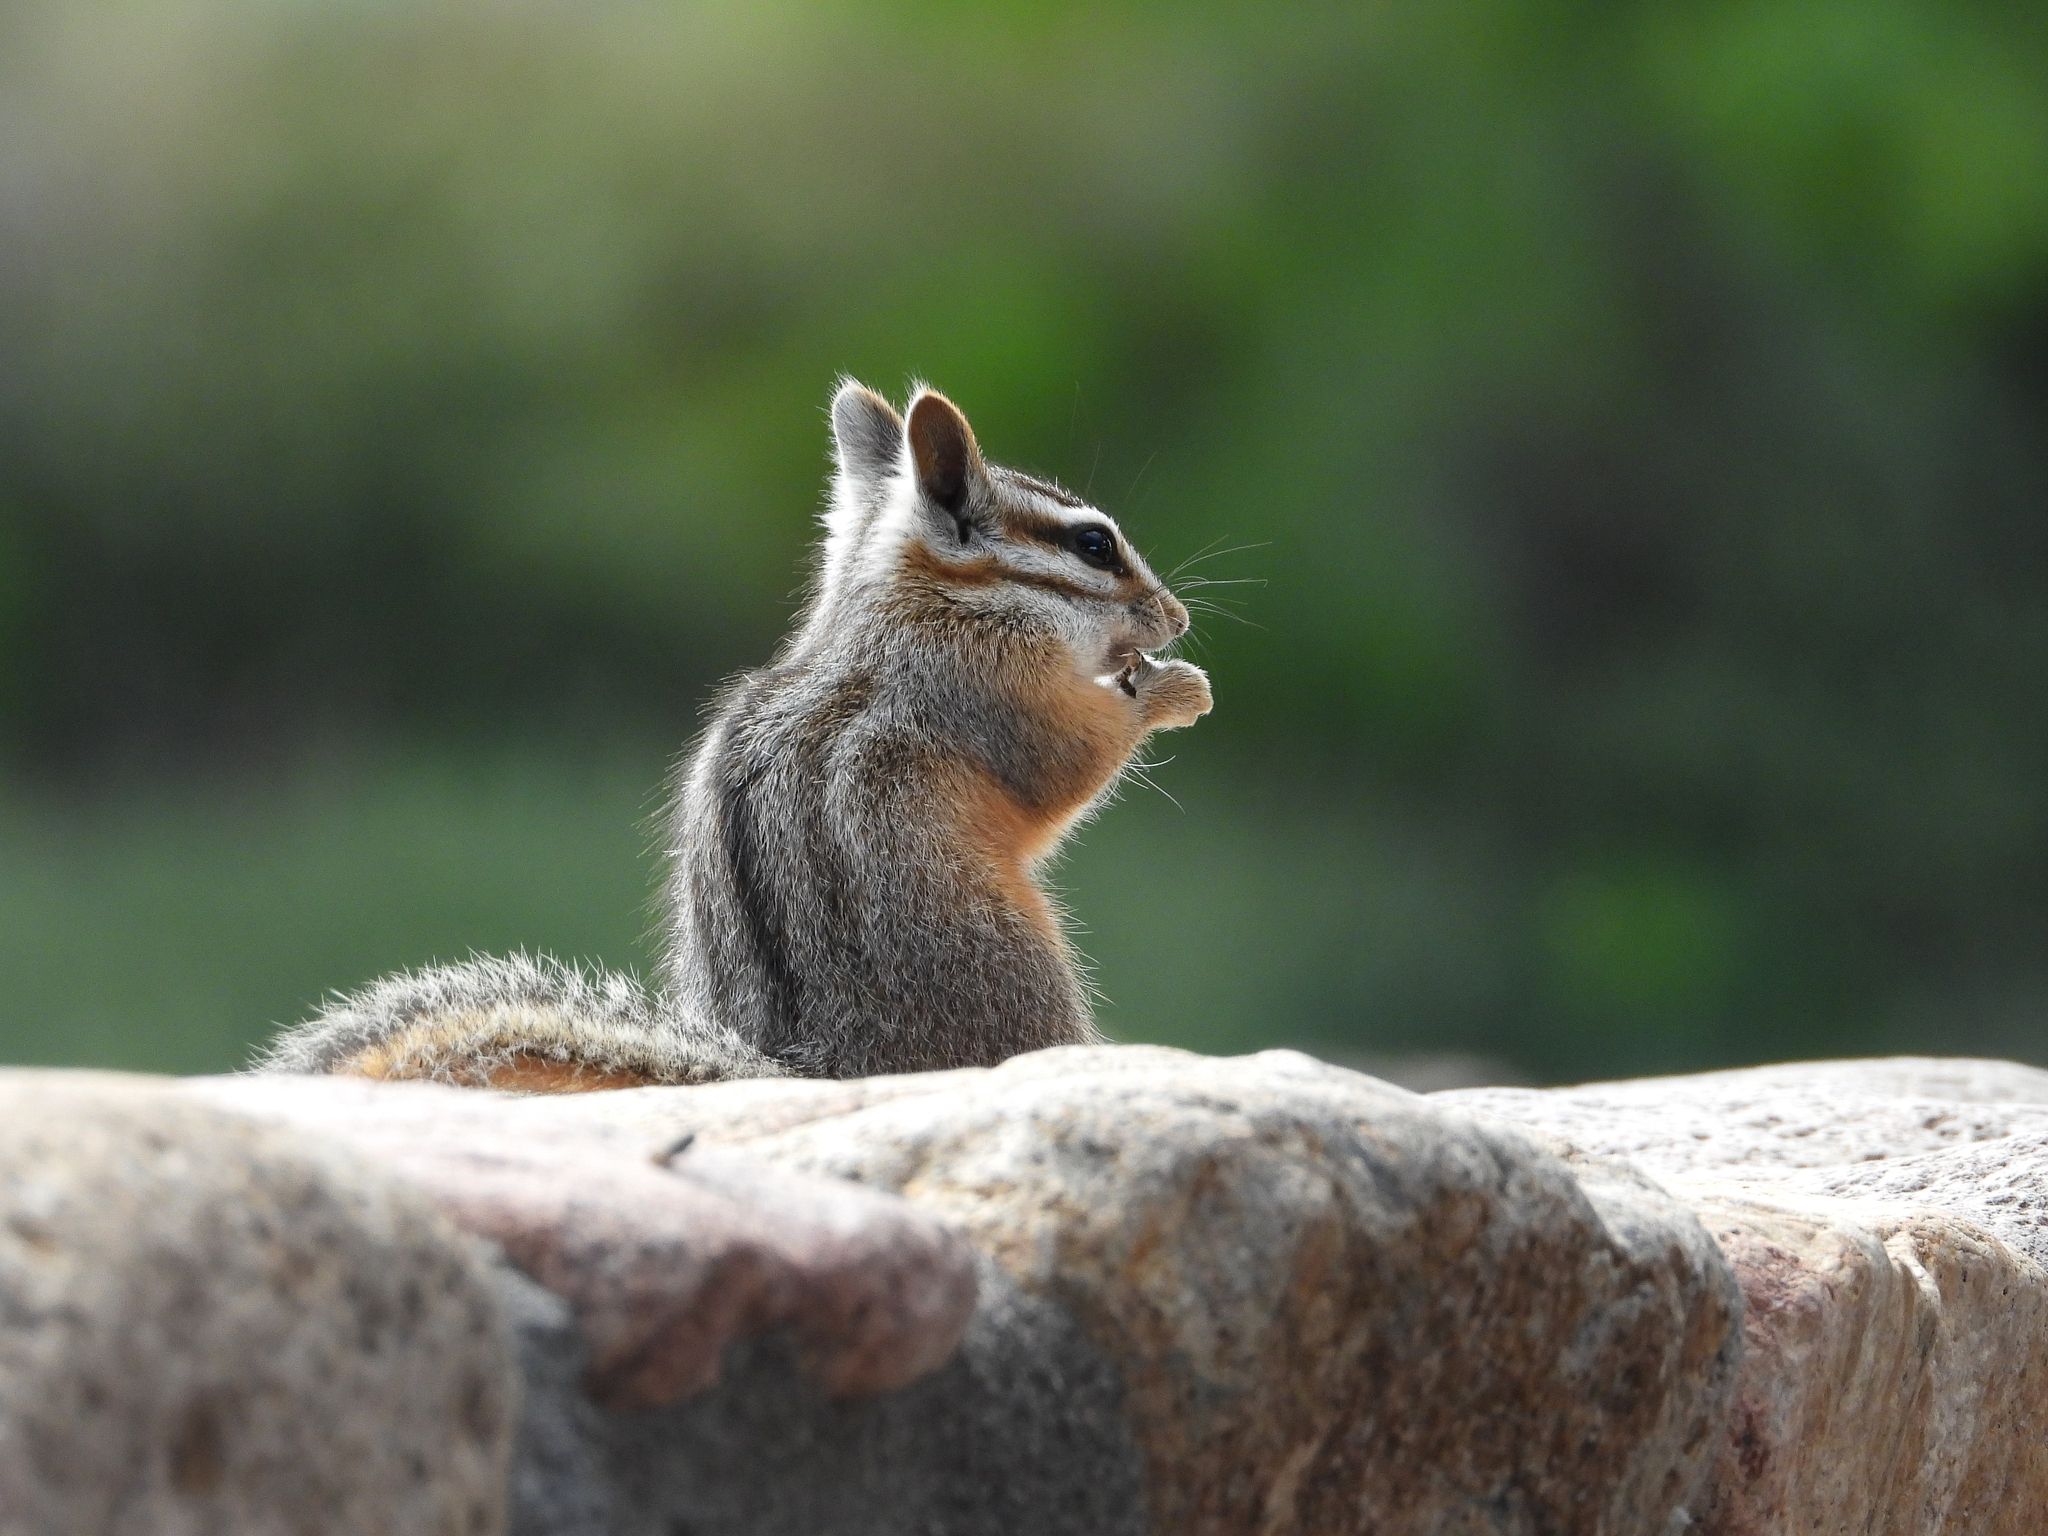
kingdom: Animalia
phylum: Chordata
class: Mammalia
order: Rodentia
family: Sciuridae
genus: Tamias
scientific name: Tamias dorsalis
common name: Cliff chipmunk
